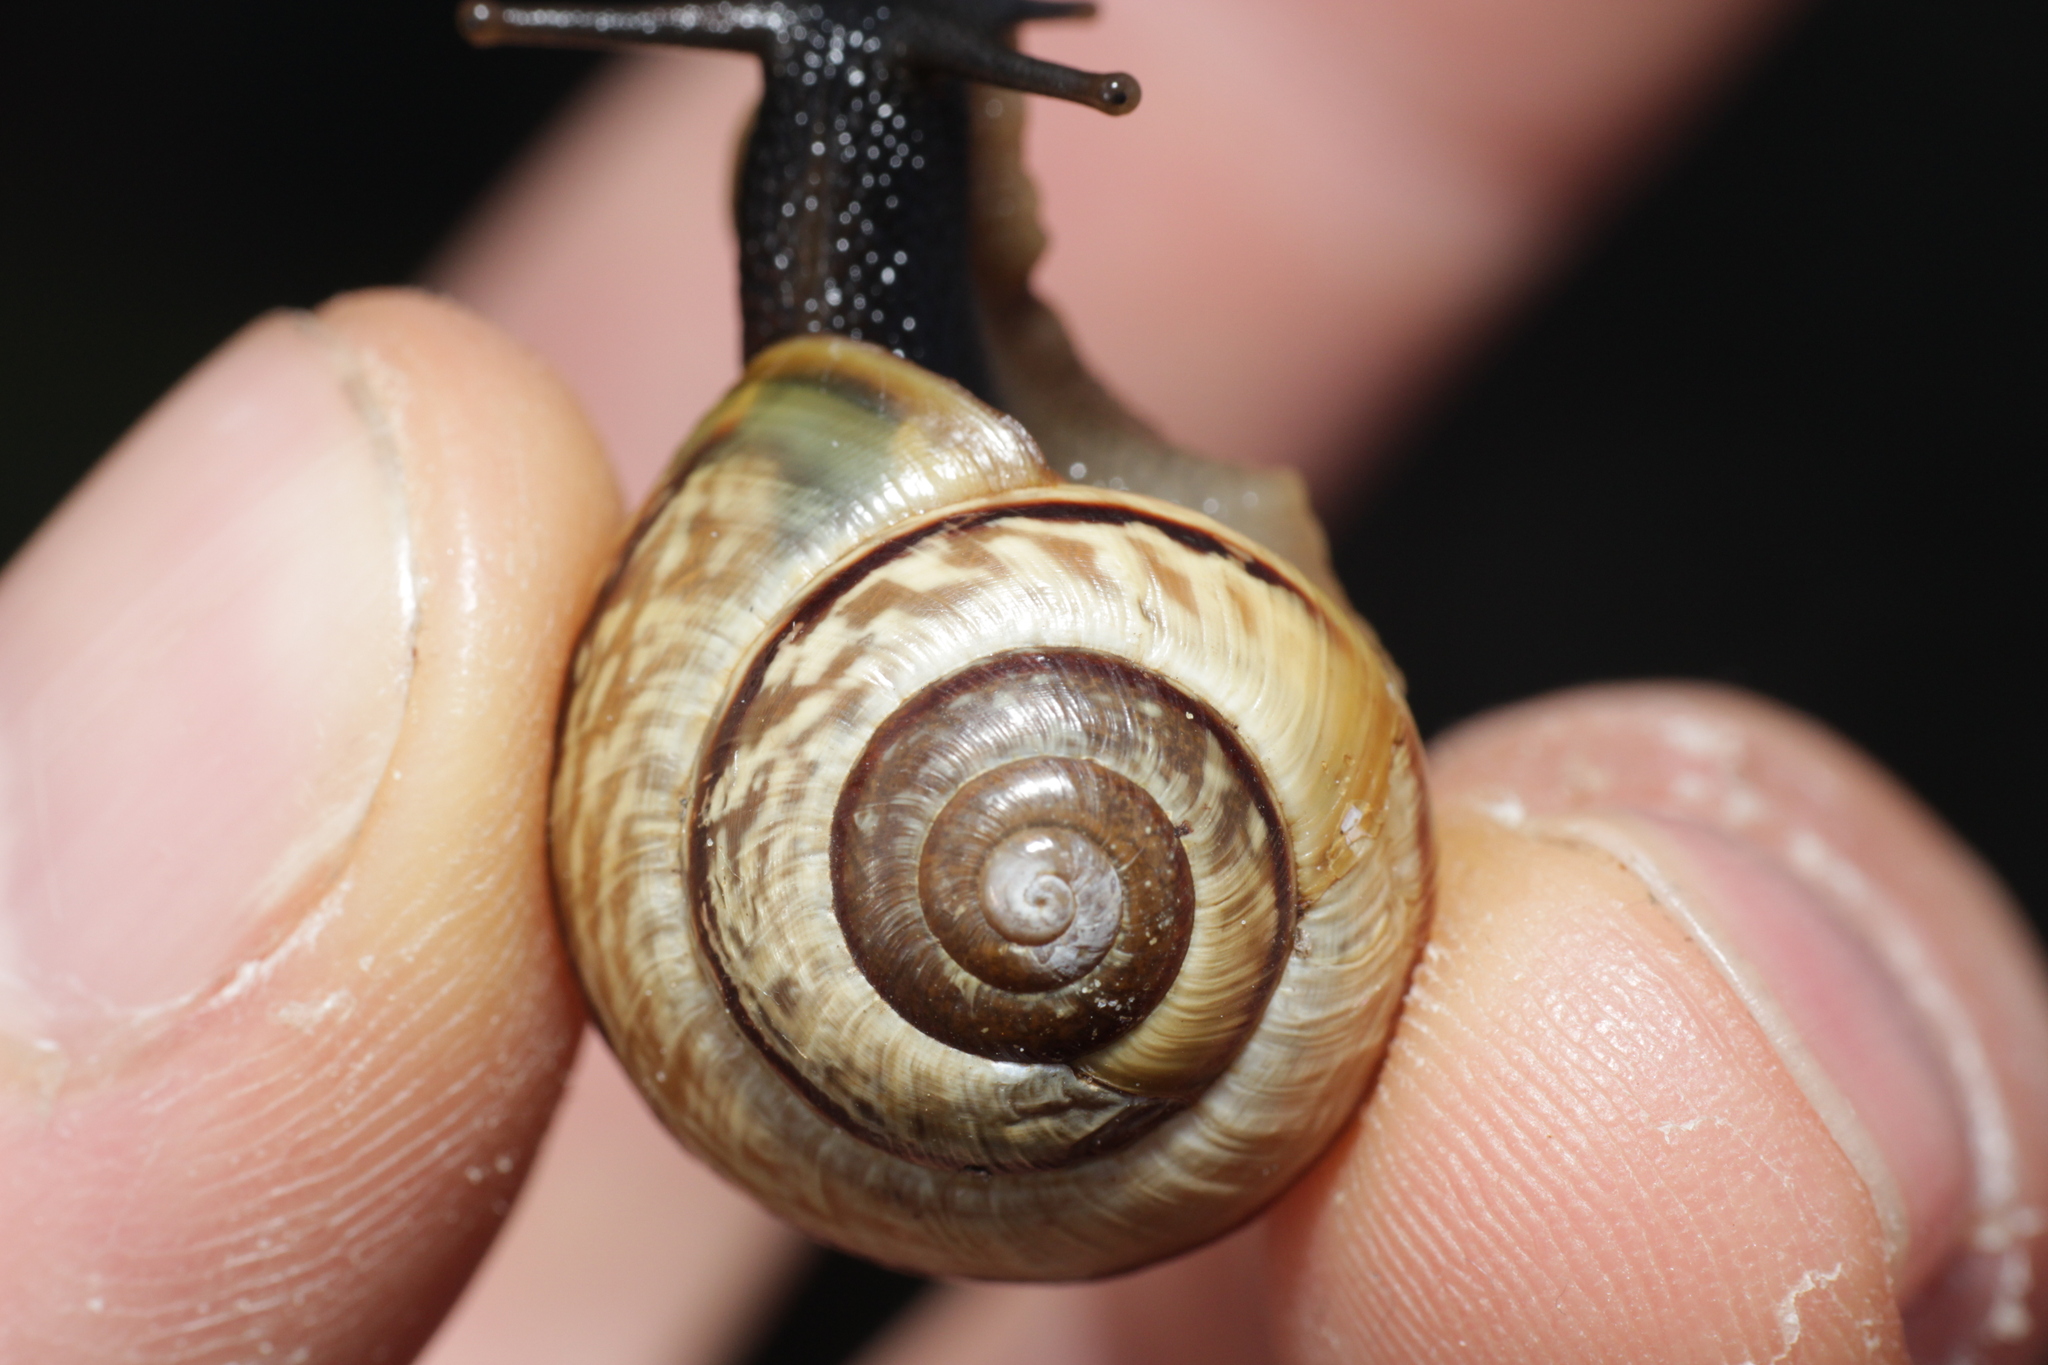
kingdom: Animalia
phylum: Mollusca
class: Gastropoda
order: Stylommatophora
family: Helicidae
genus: Arianta
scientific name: Arianta arbustorum
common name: Copse snail
